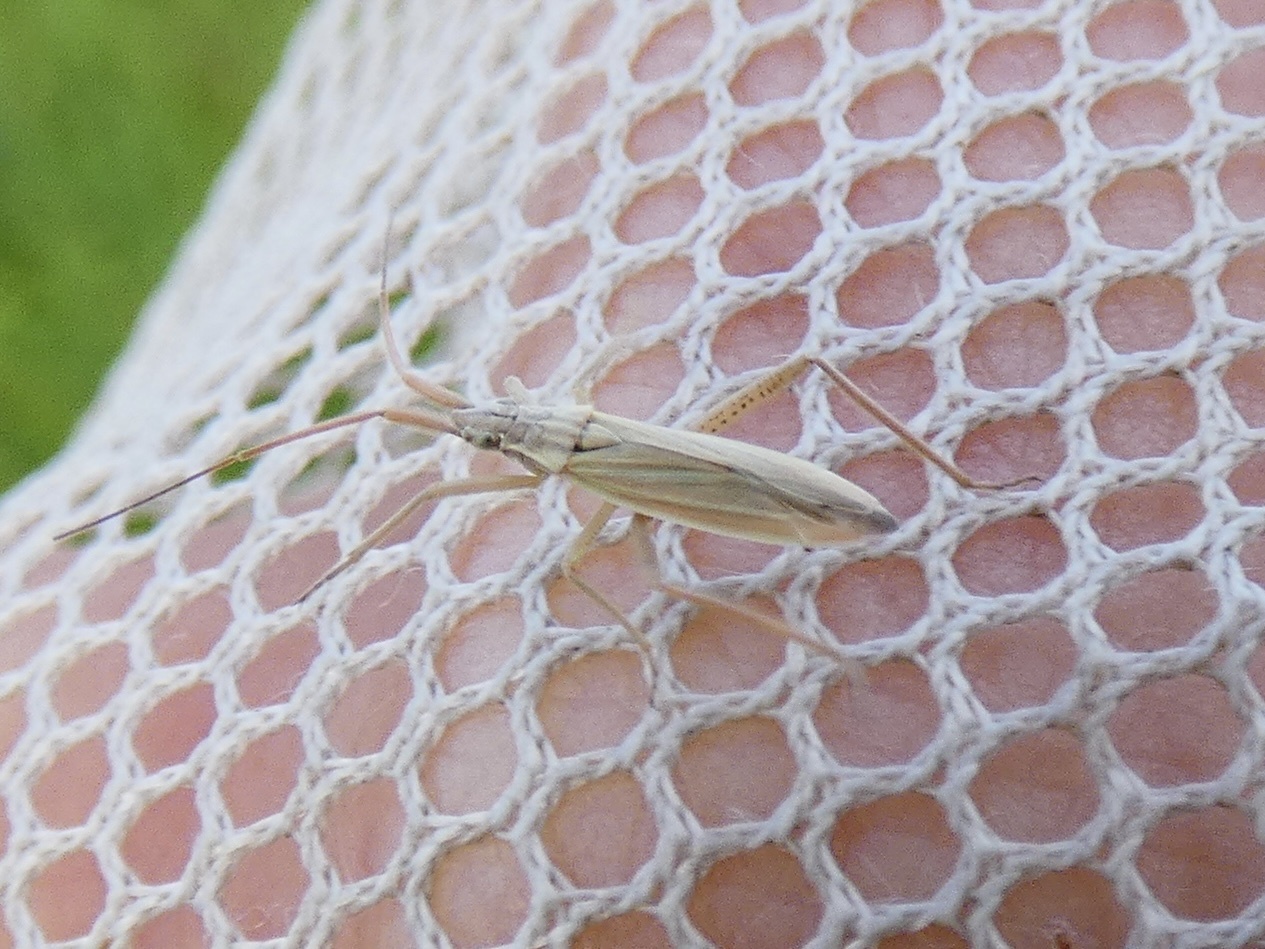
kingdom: Animalia
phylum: Arthropoda
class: Insecta
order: Hemiptera
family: Miridae
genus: Stenodema
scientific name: Stenodema laevigata
